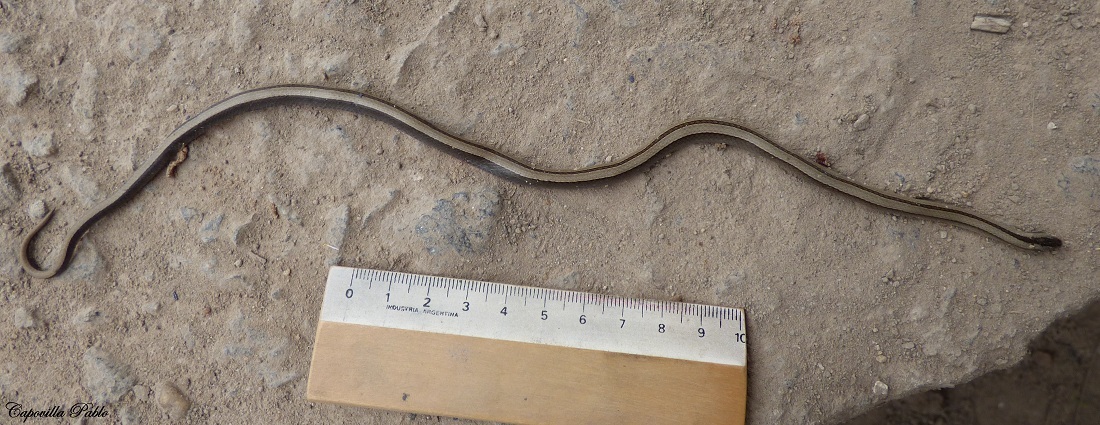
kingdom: Animalia
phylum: Chordata
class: Squamata
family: Colubridae
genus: Psomophis
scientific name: Psomophis obtusus
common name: Wide ground snake
